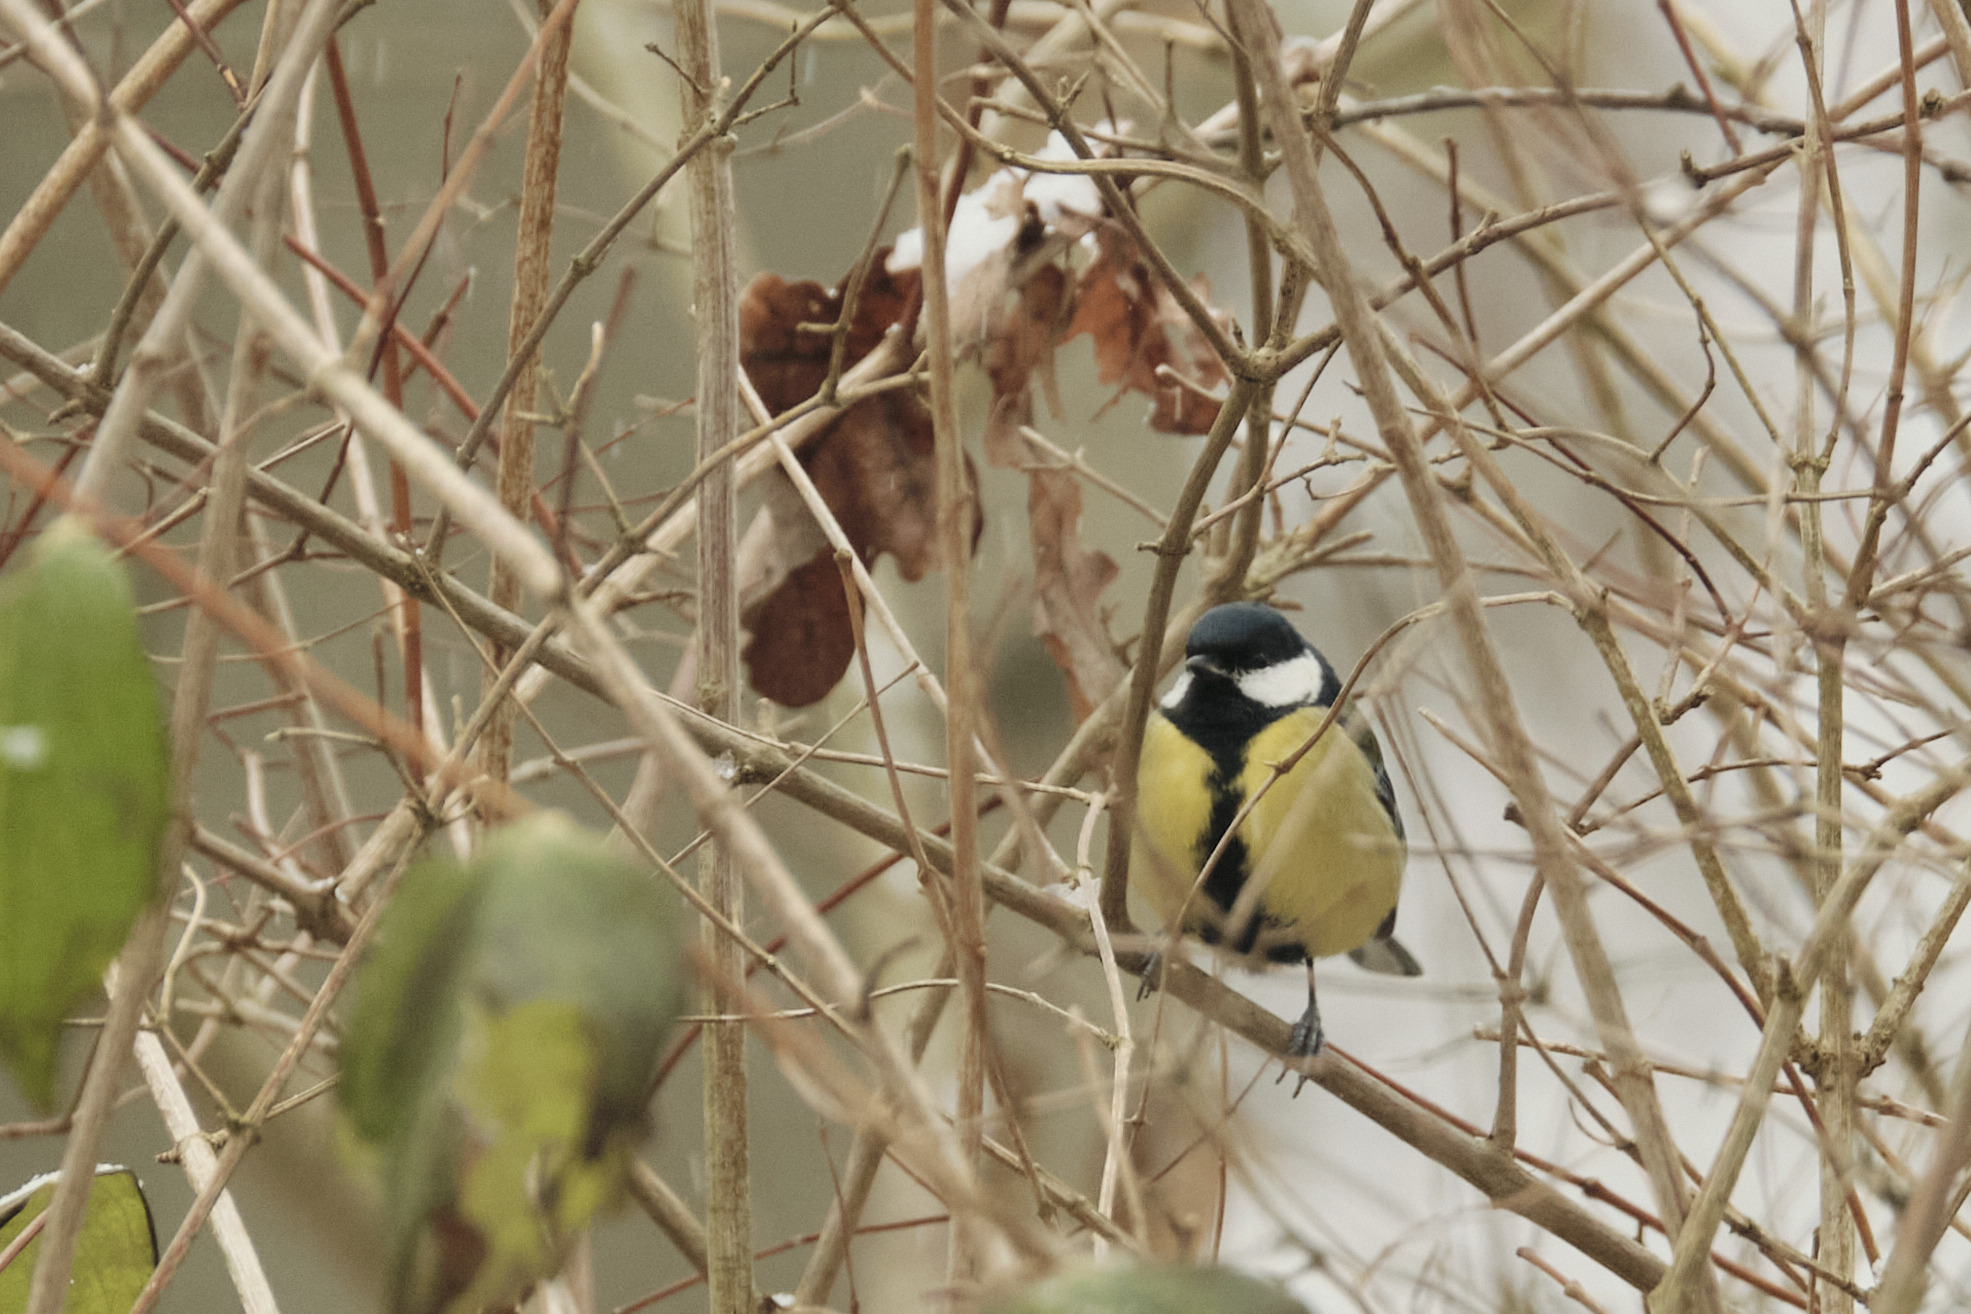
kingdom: Animalia
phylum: Chordata
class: Aves
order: Passeriformes
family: Paridae
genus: Parus
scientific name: Parus major
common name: Great tit
